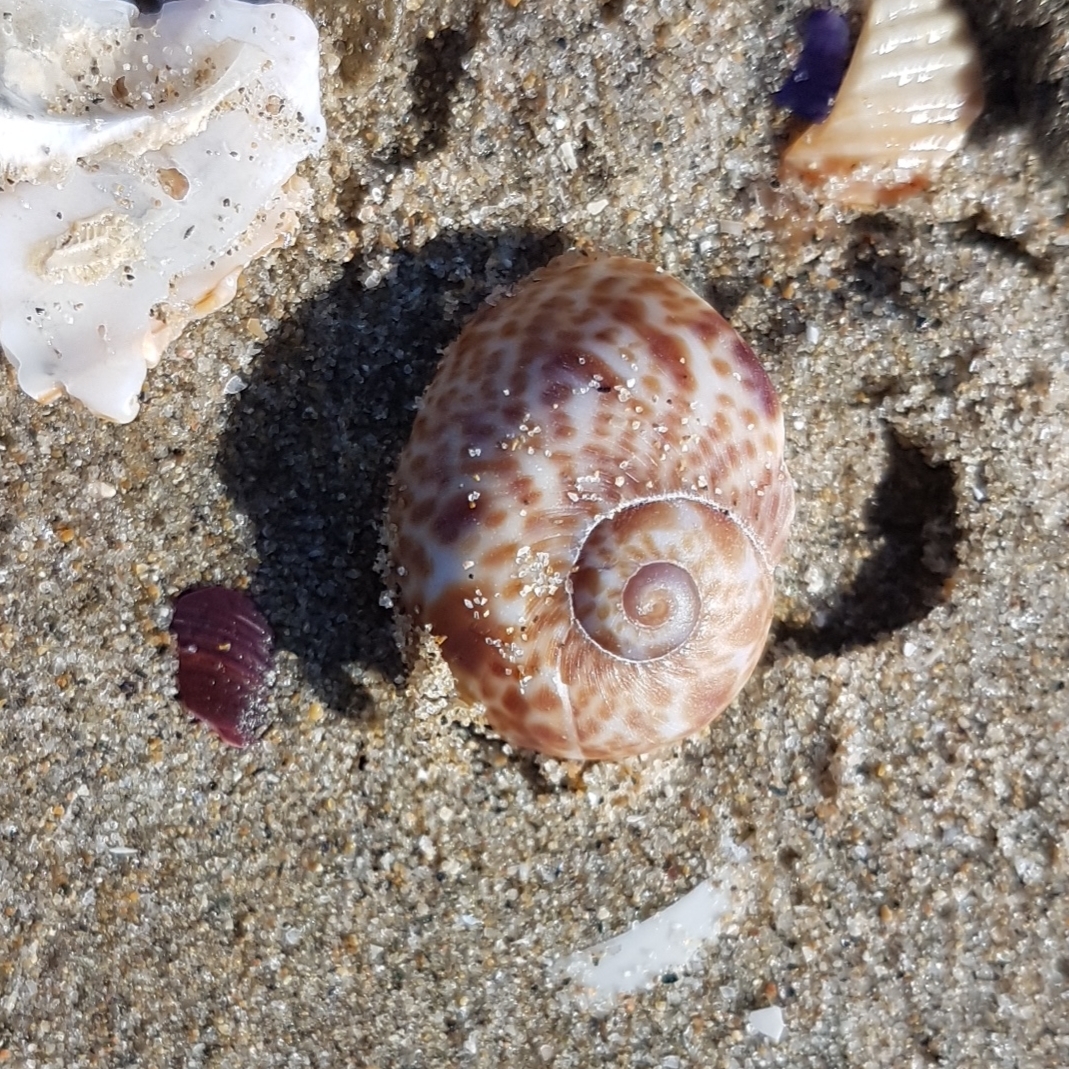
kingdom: Animalia
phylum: Mollusca
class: Gastropoda
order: Littorinimorpha
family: Naticidae
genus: Naticarius
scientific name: Naticarius hebraeus
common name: Hebrew moon shell
